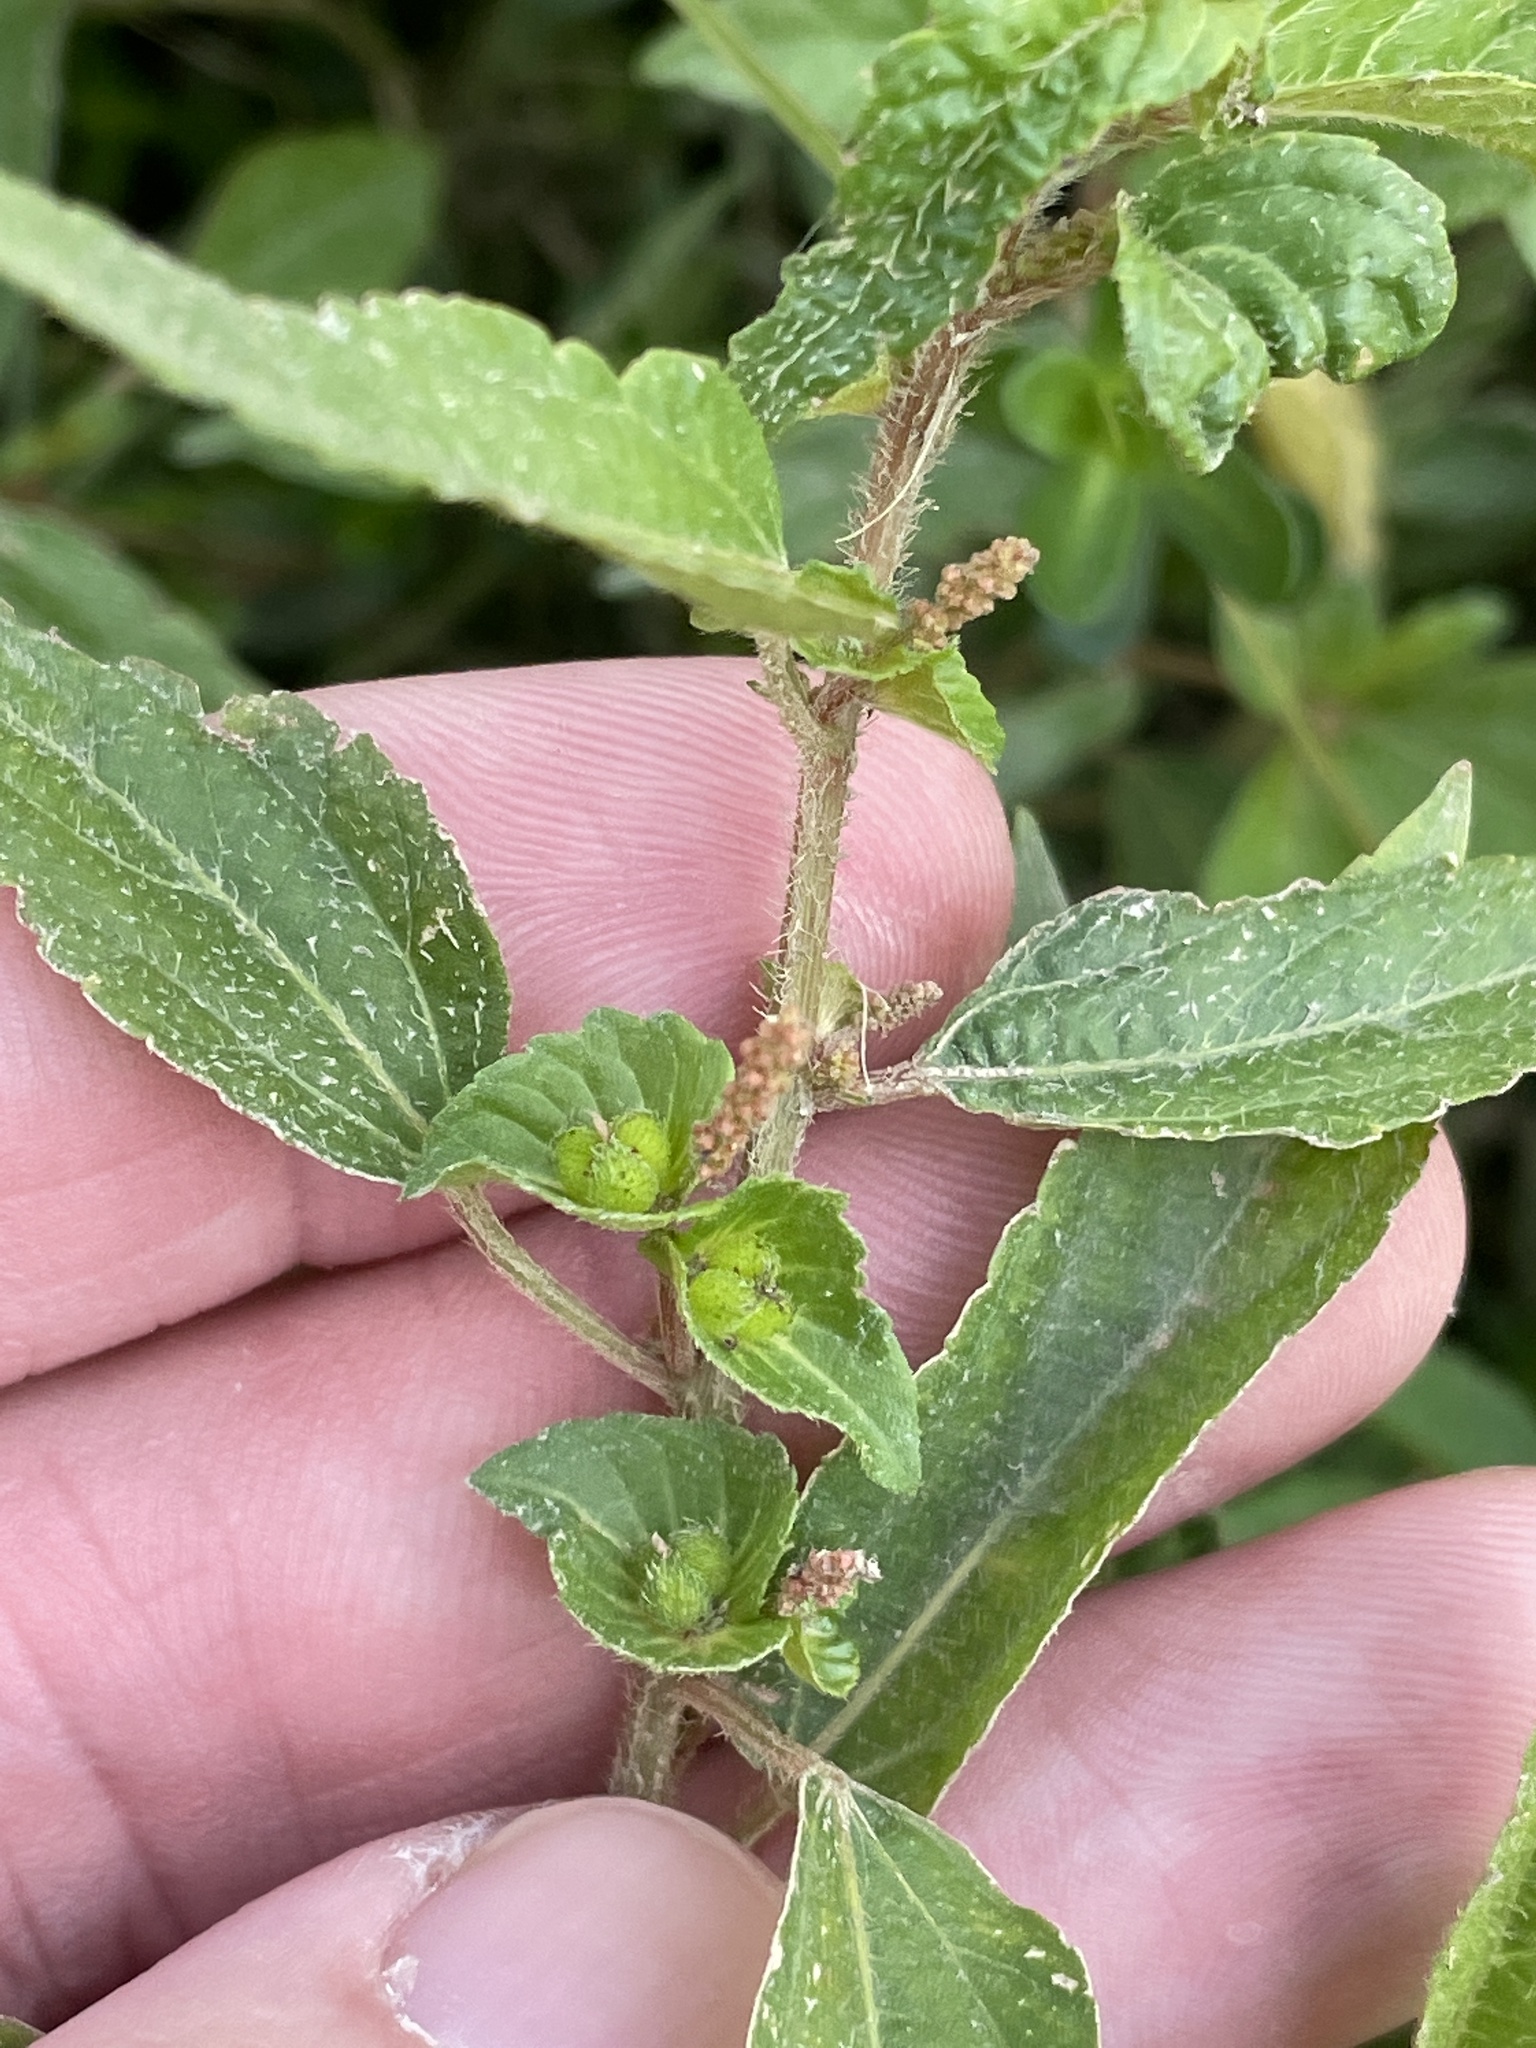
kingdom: Plantae
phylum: Tracheophyta
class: Magnoliopsida
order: Malpighiales
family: Euphorbiaceae
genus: Acalypha
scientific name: Acalypha virginica
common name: Virginia copperleaf
